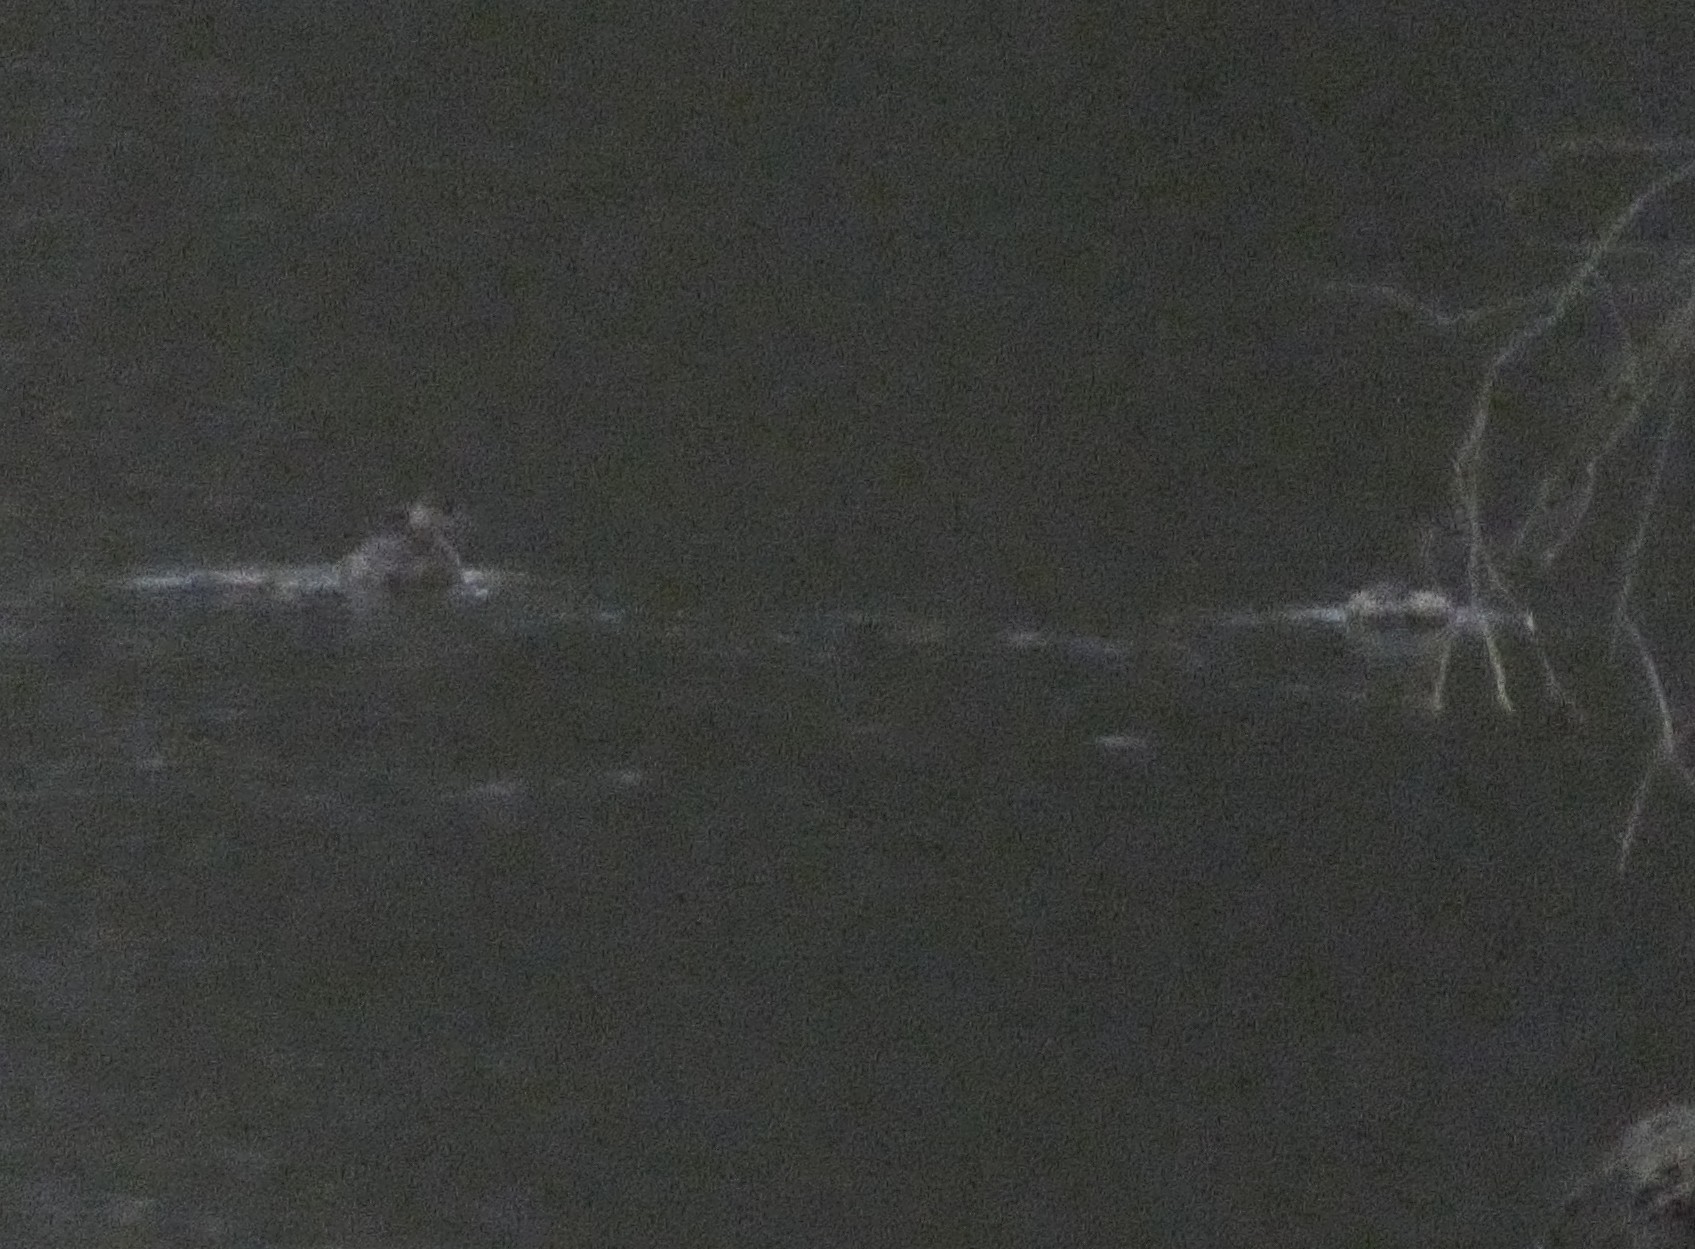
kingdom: Animalia
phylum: Chordata
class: Aves
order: Podicipediformes
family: Podicipedidae
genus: Tachybaptus
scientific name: Tachybaptus ruficollis
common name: Little grebe
